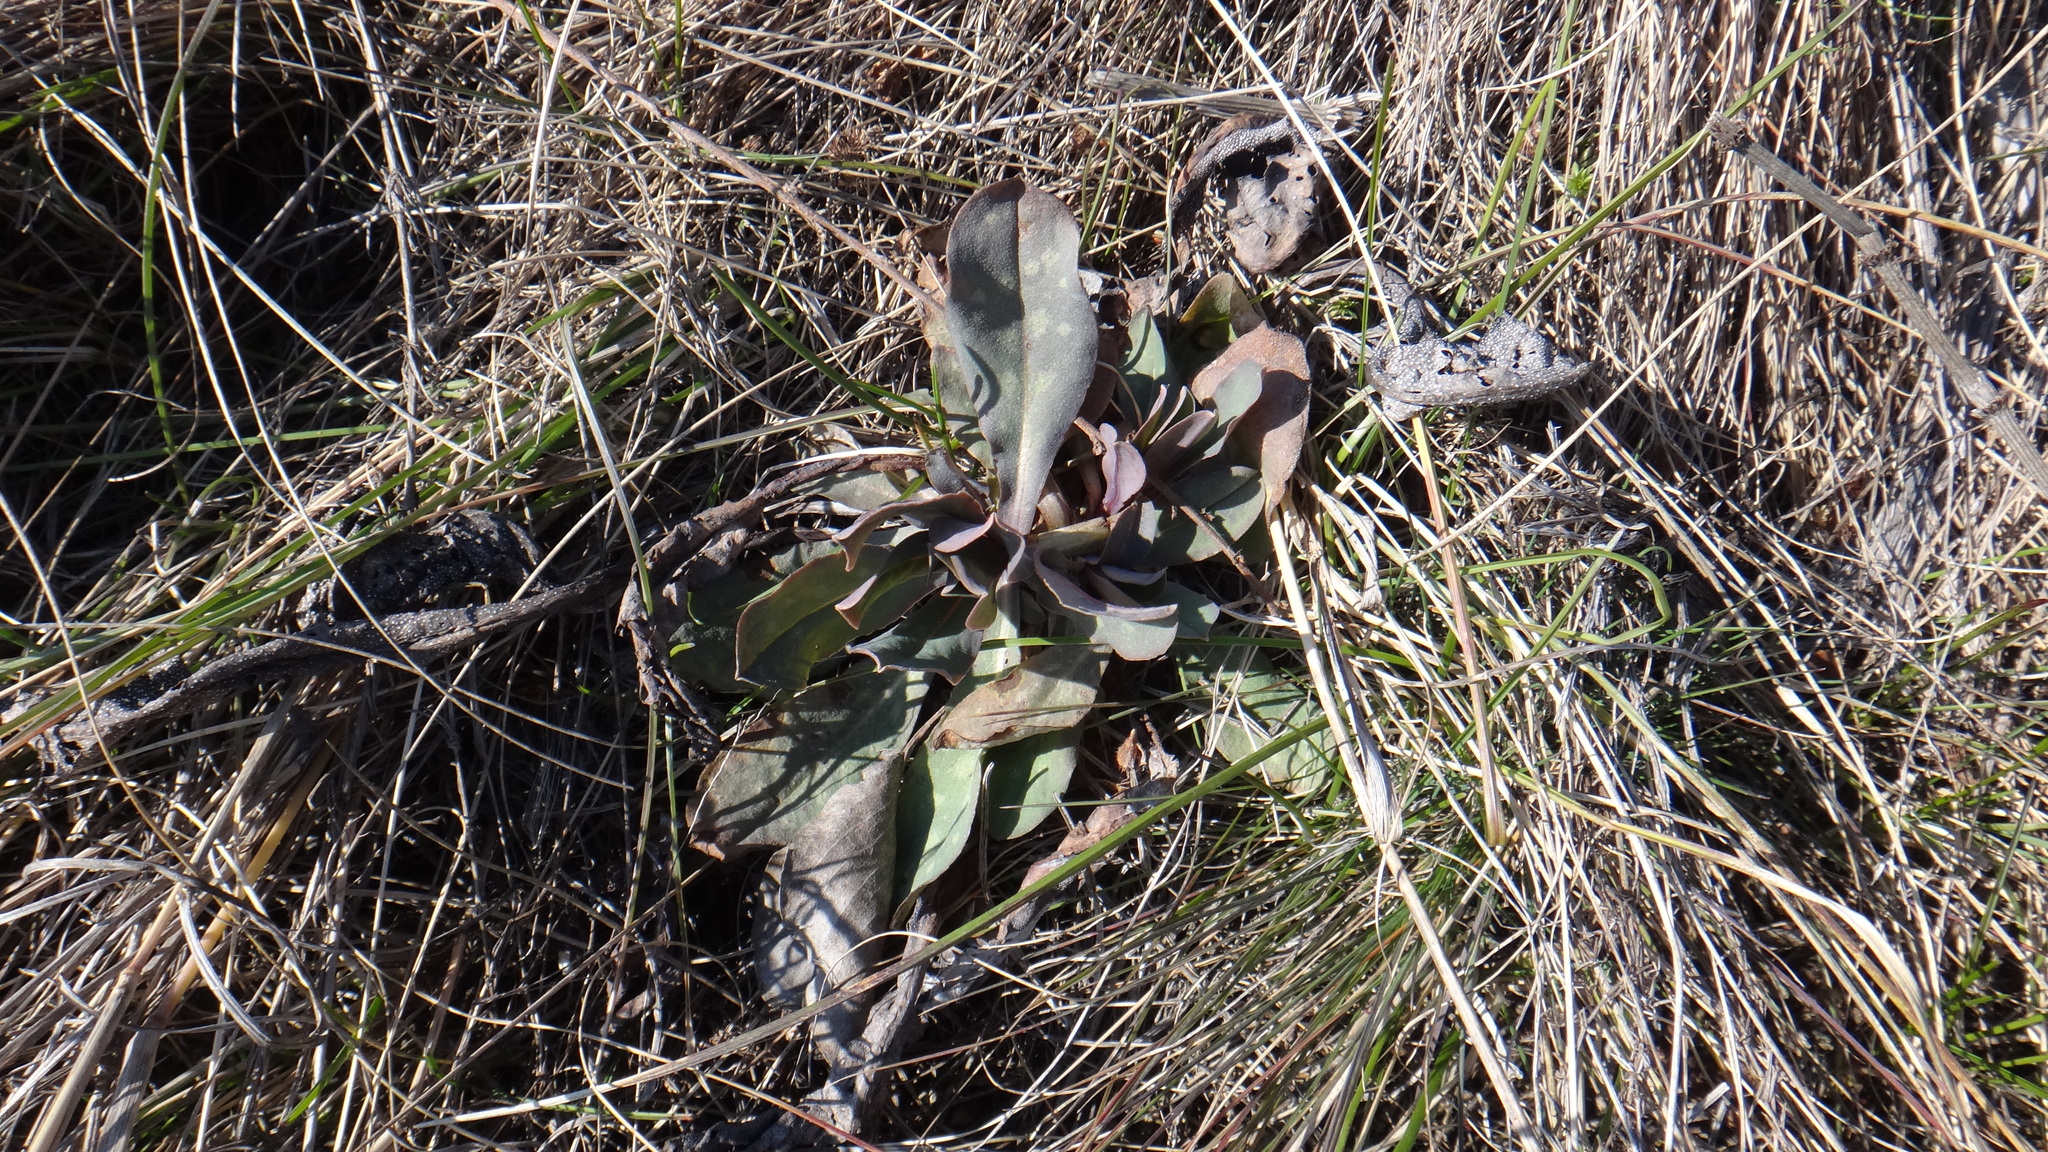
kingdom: Plantae
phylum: Tracheophyta
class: Magnoliopsida
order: Boraginales
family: Boraginaceae
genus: Cerinthe
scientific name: Cerinthe minor
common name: Lesser honeywort
